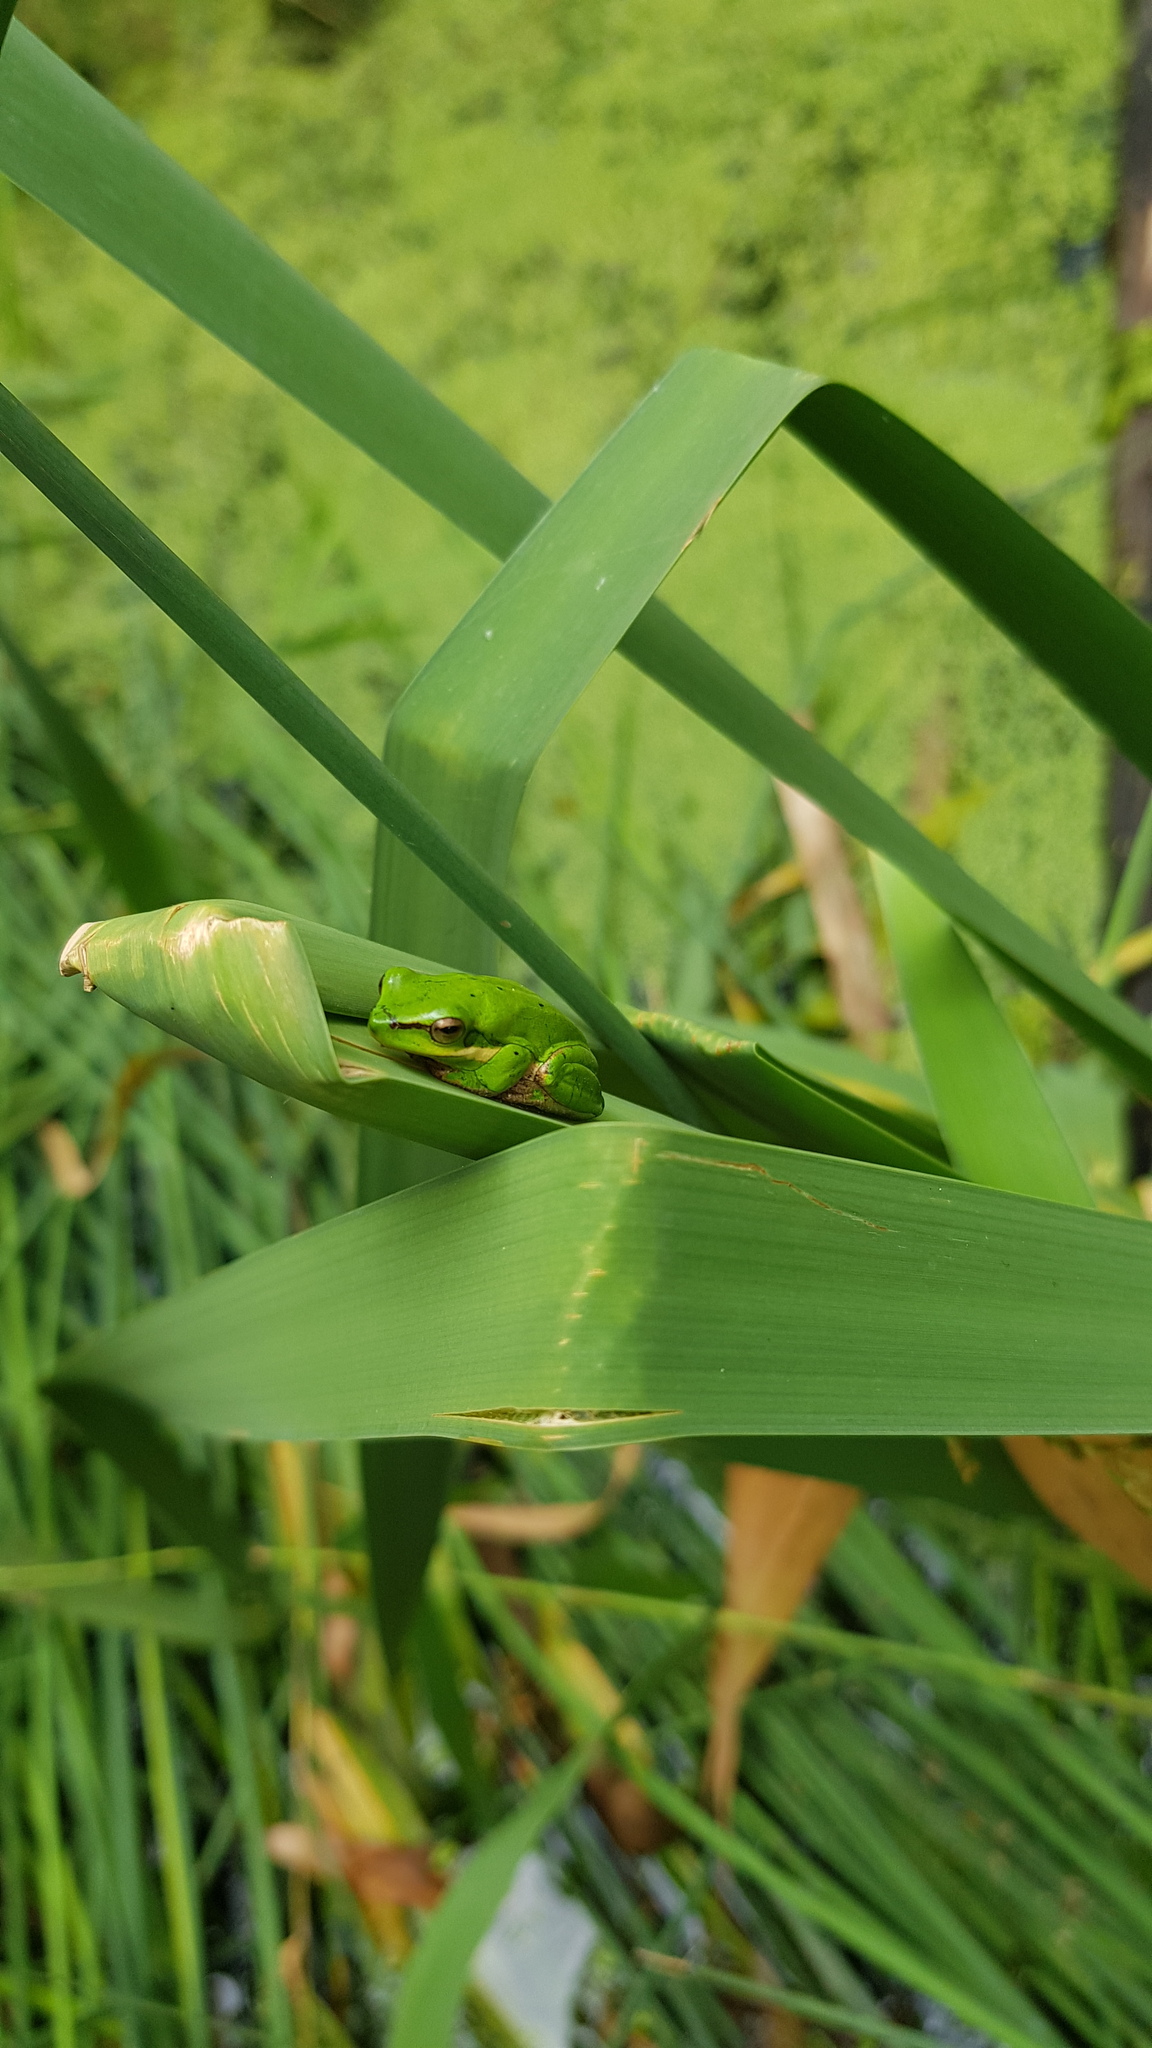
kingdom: Animalia
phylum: Chordata
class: Amphibia
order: Anura
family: Pelodryadidae
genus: Litoria
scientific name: Litoria fallax
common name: Eastern dwarf treefrog
